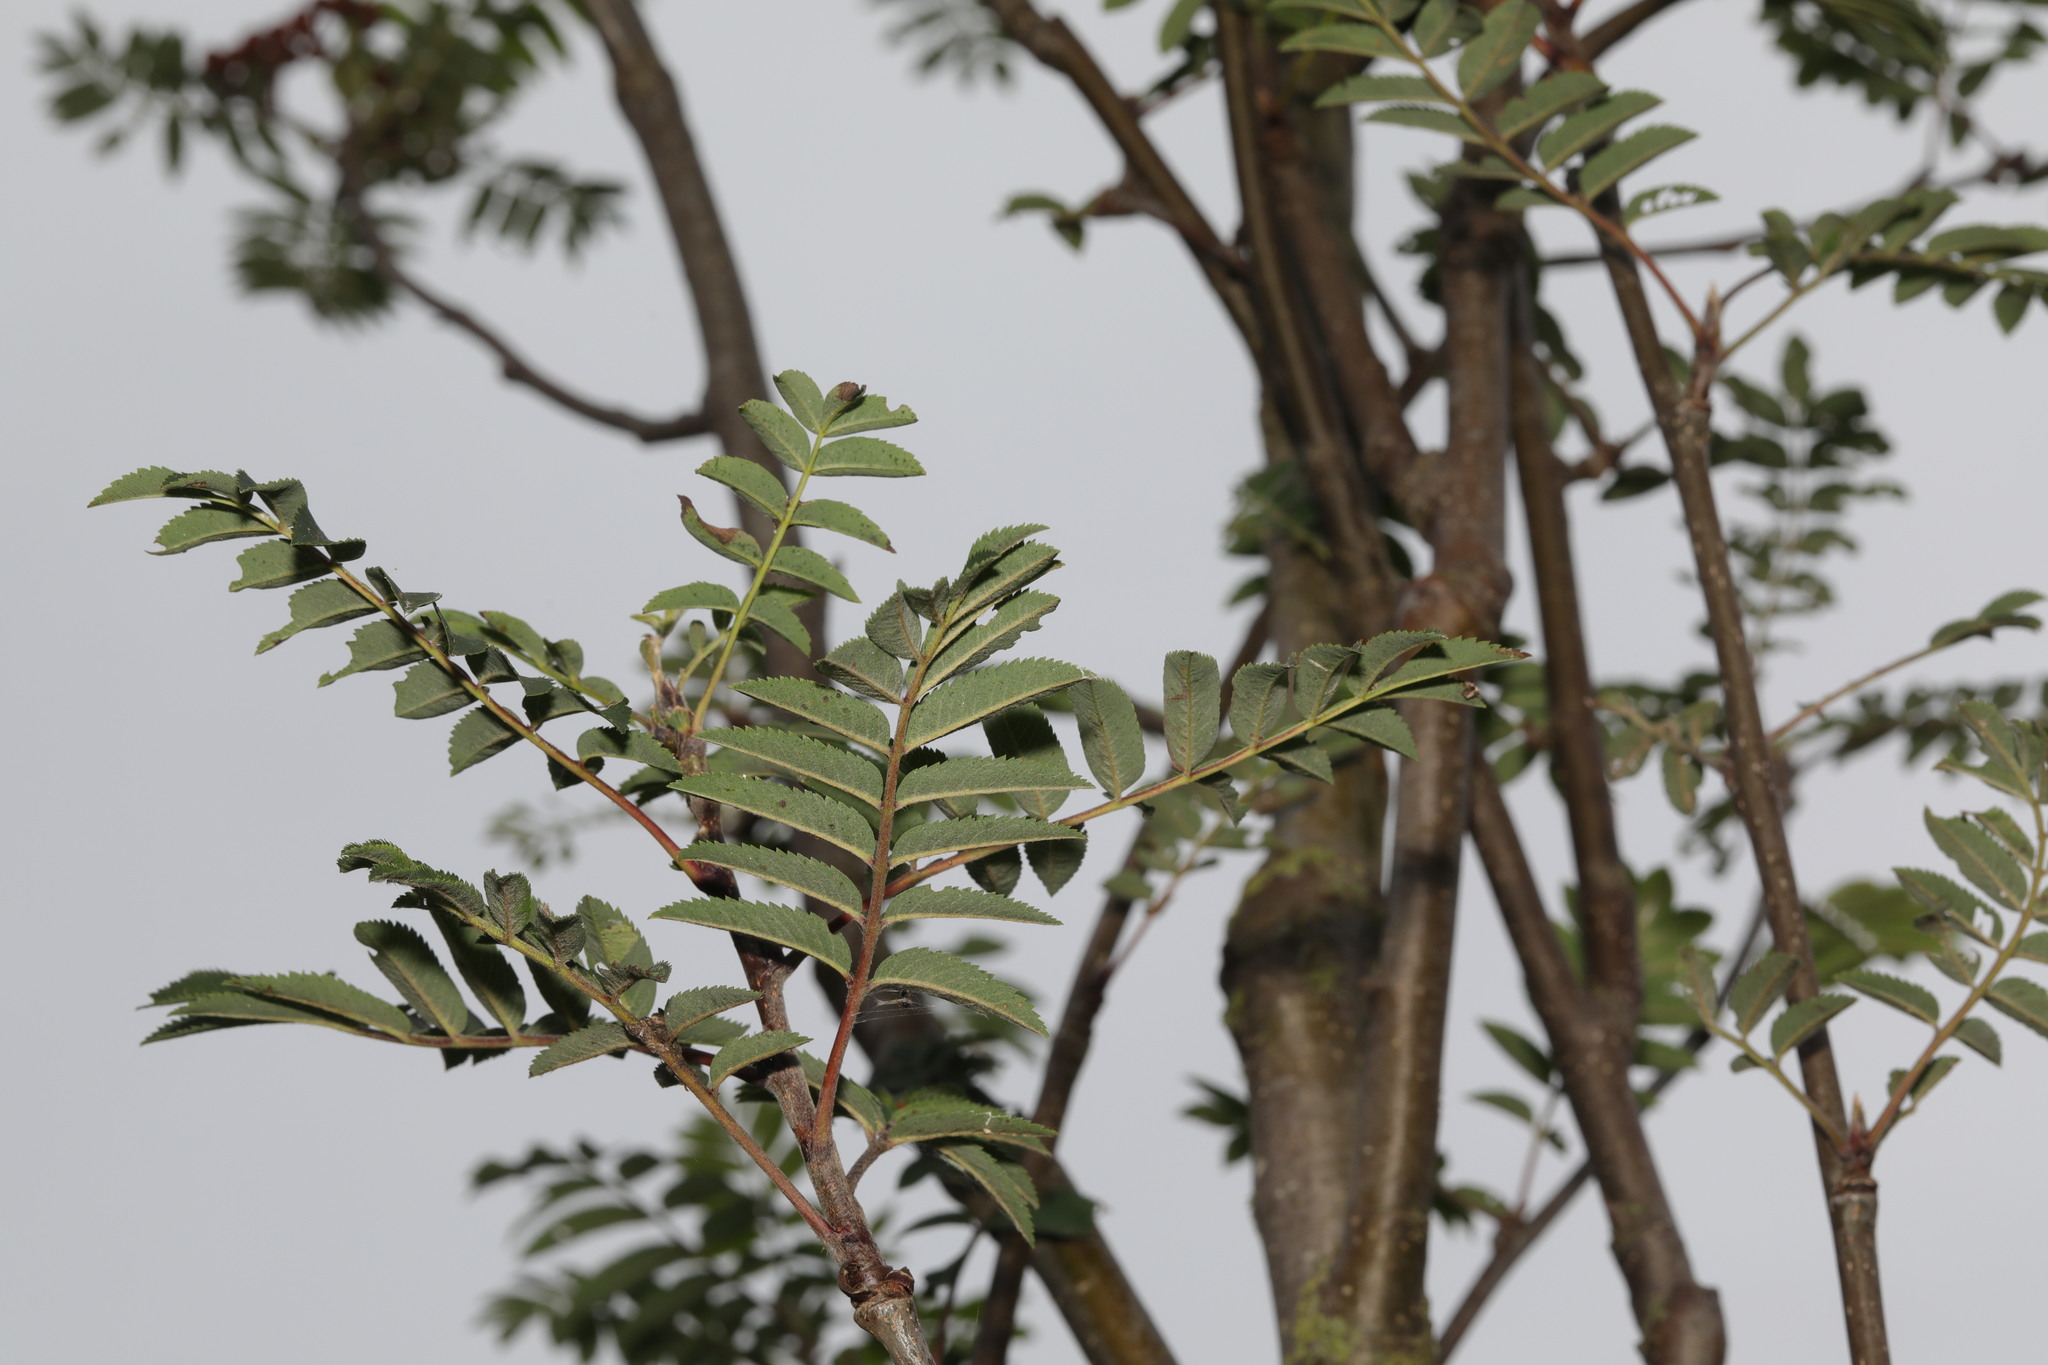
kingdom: Plantae
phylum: Tracheophyta
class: Magnoliopsida
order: Rosales
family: Rosaceae
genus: Sorbus
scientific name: Sorbus aucuparia
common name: Rowan
